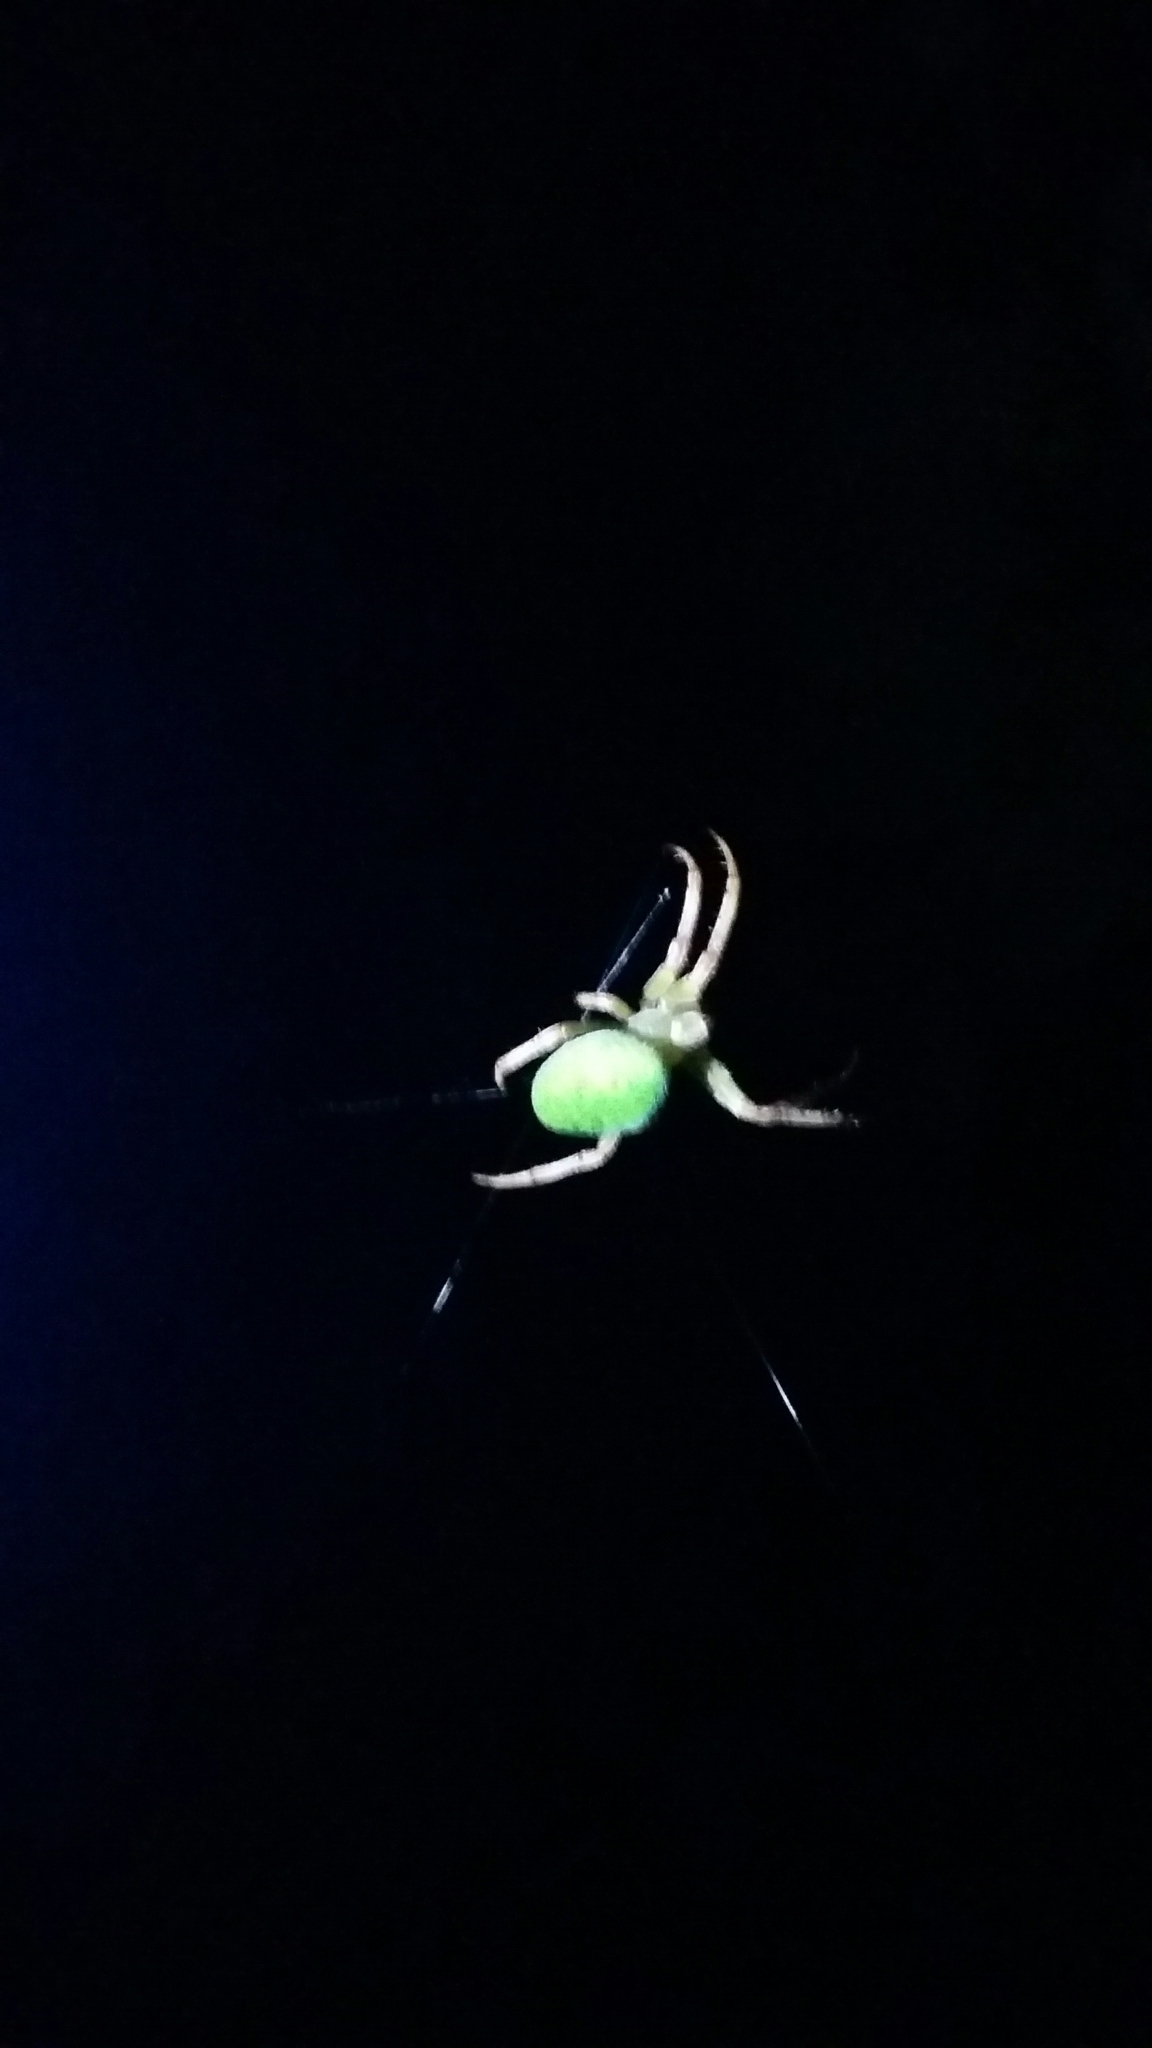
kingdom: Animalia
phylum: Arthropoda
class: Arachnida
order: Araneae
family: Araneidae
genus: Colaranea
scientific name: Colaranea viriditas
